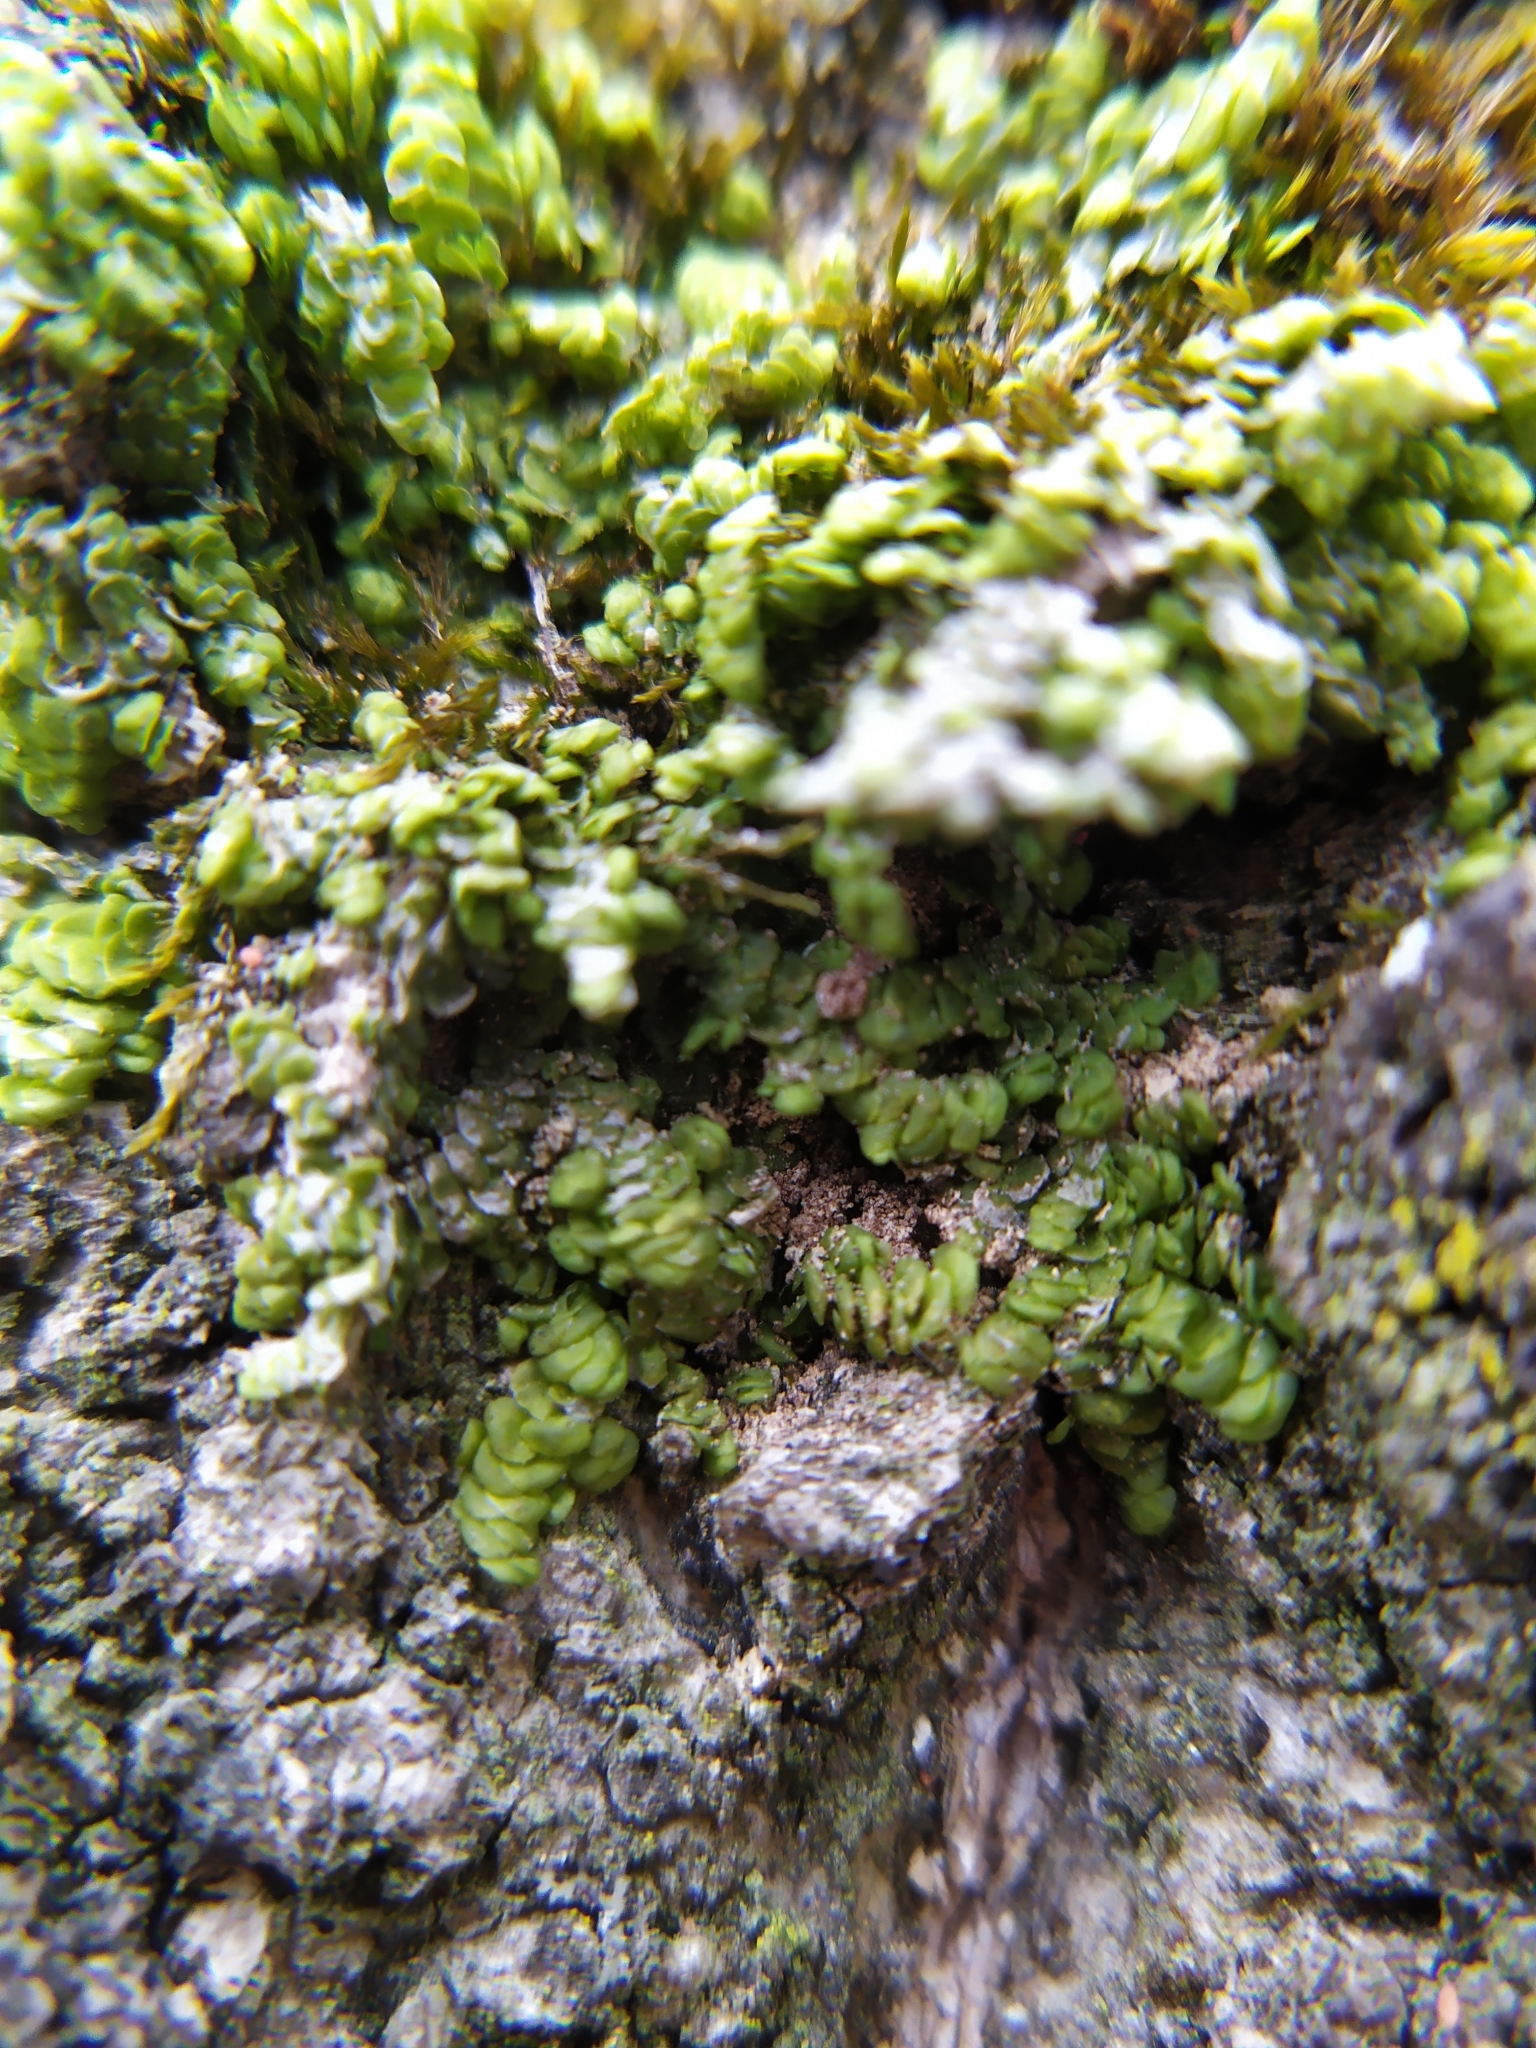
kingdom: Plantae
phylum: Marchantiophyta
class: Jungermanniopsida
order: Porellales
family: Radulaceae
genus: Radula
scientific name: Radula complanata
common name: Flat-leaved scalewort
